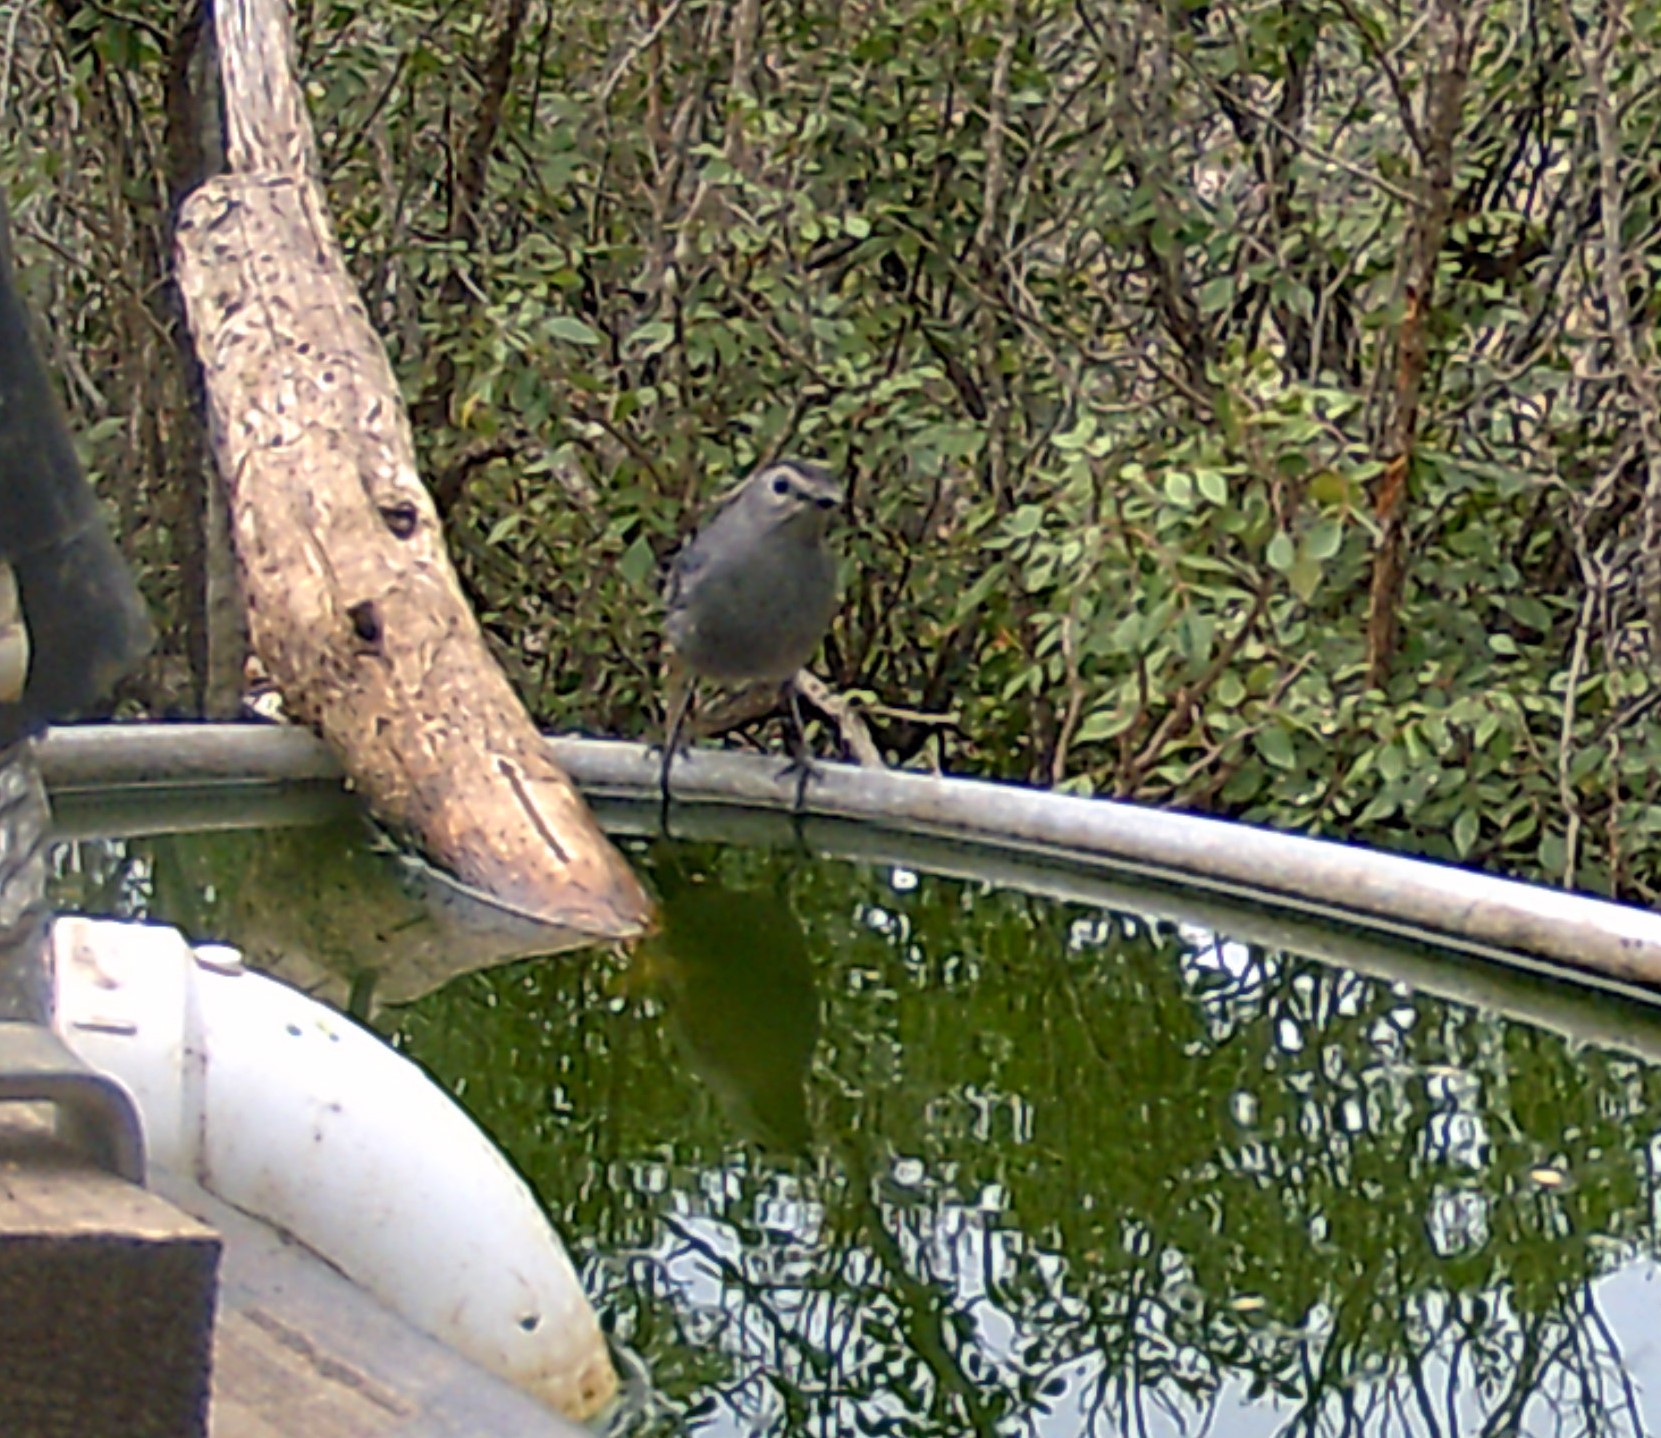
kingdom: Animalia
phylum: Chordata
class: Aves
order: Passeriformes
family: Mimidae
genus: Dumetella
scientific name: Dumetella carolinensis
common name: Gray catbird
